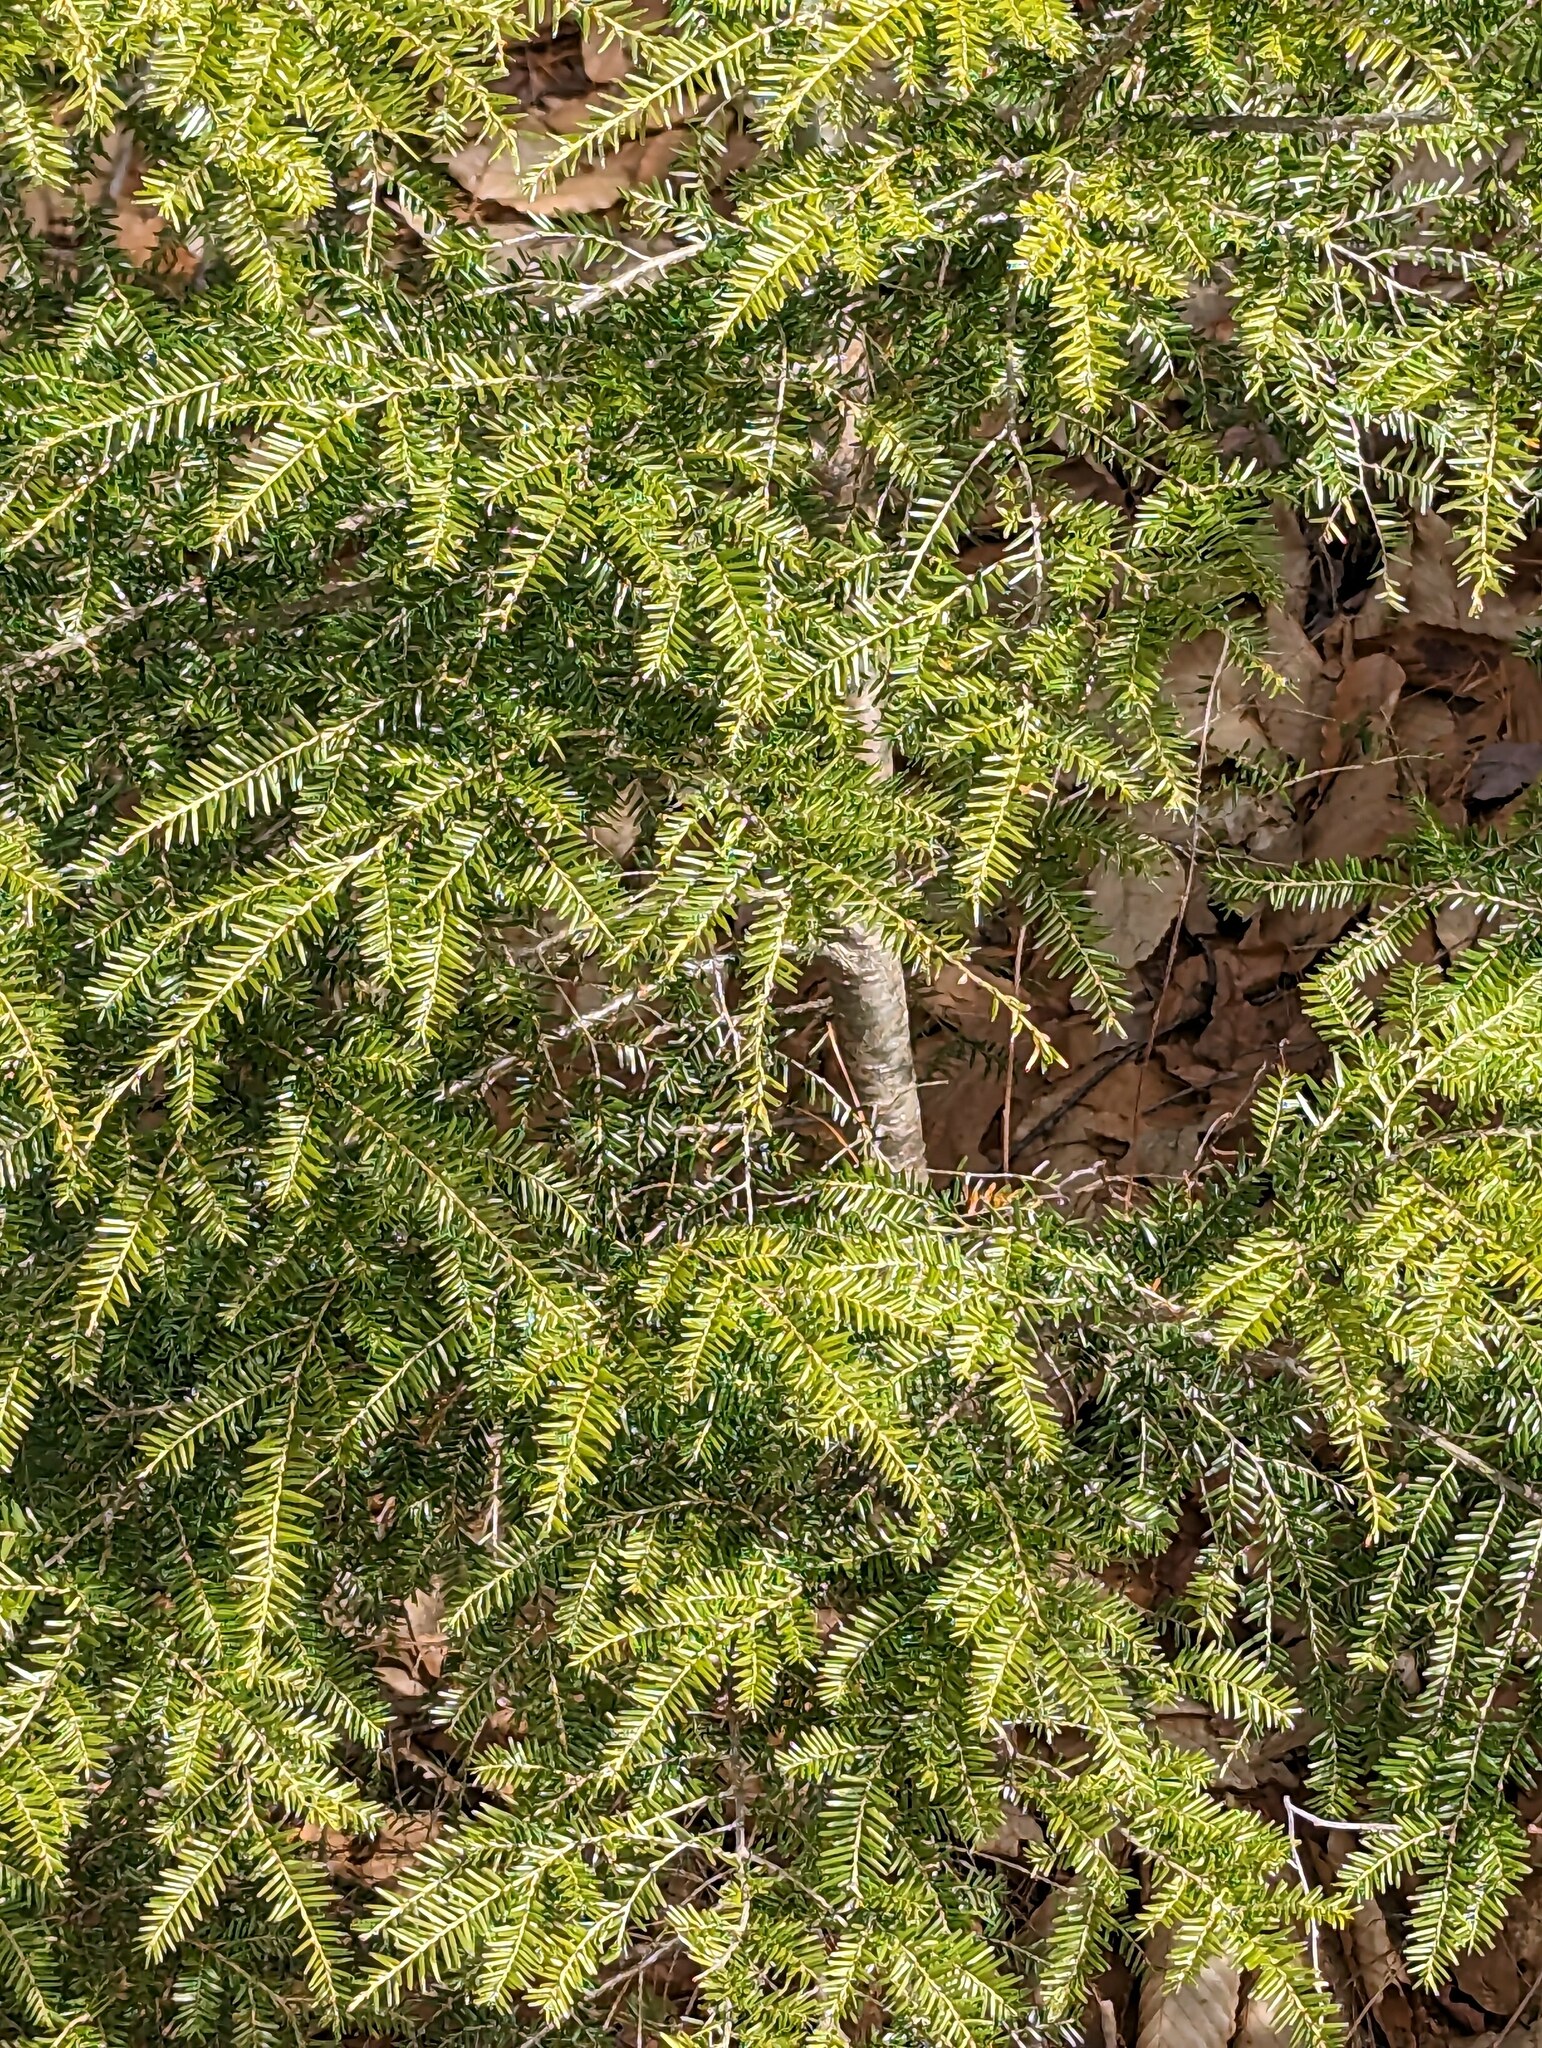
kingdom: Plantae
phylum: Tracheophyta
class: Pinopsida
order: Pinales
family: Pinaceae
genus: Tsuga
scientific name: Tsuga canadensis
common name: Eastern hemlock
